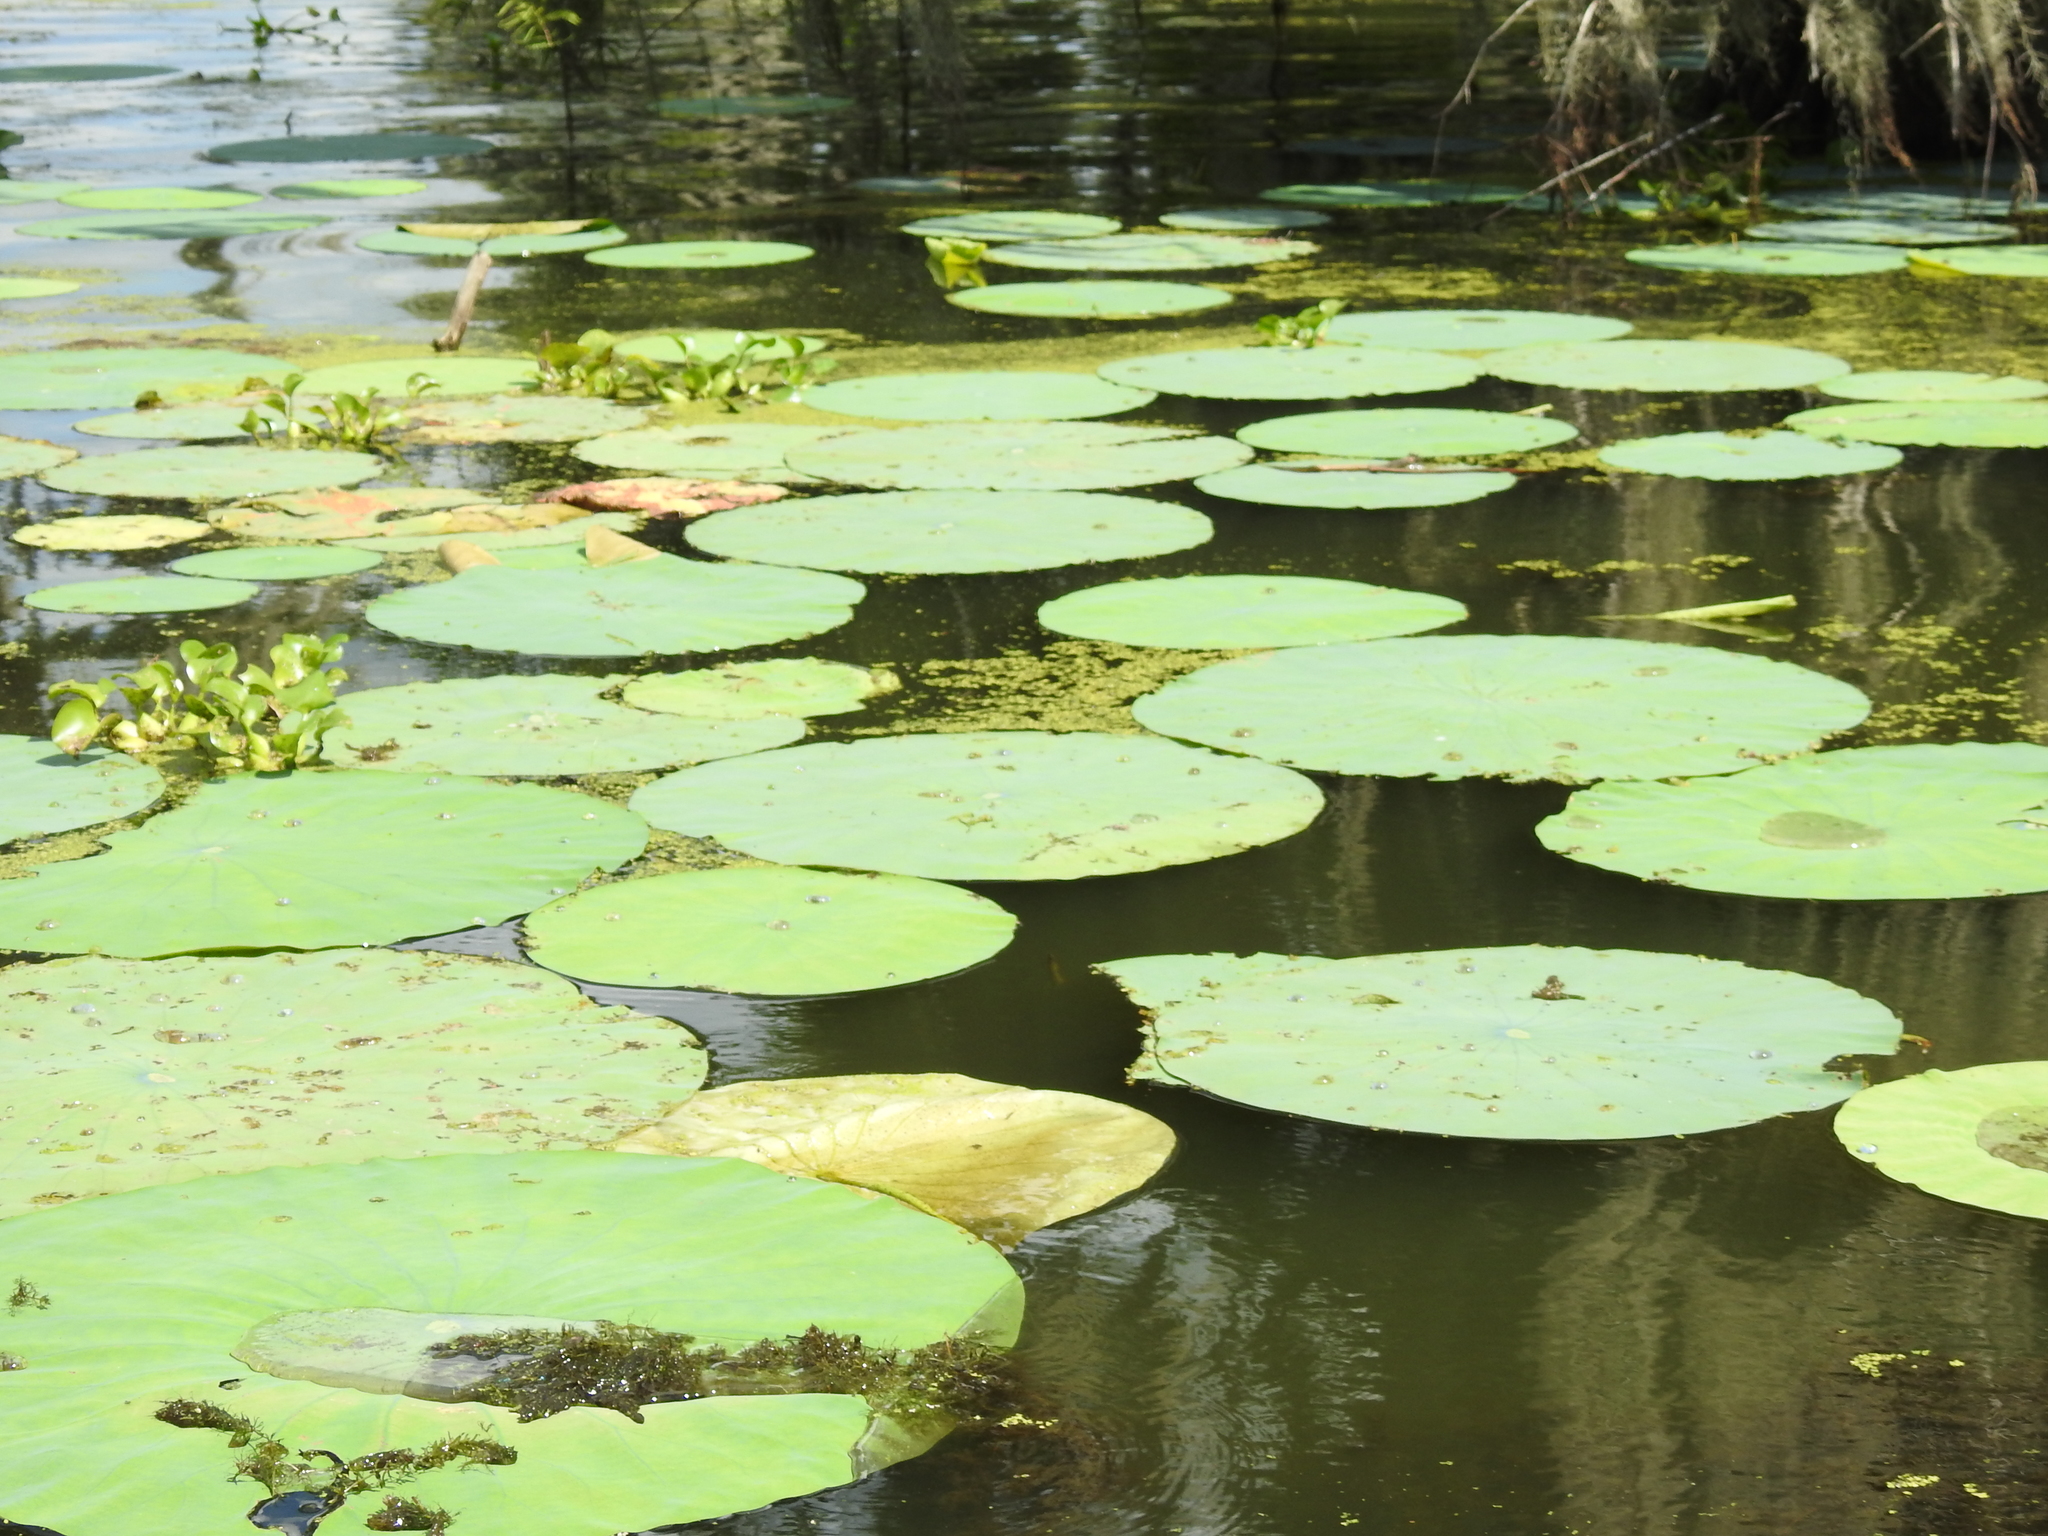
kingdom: Plantae
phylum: Tracheophyta
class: Magnoliopsida
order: Proteales
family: Nelumbonaceae
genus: Nelumbo
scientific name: Nelumbo lutea
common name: American lotus
